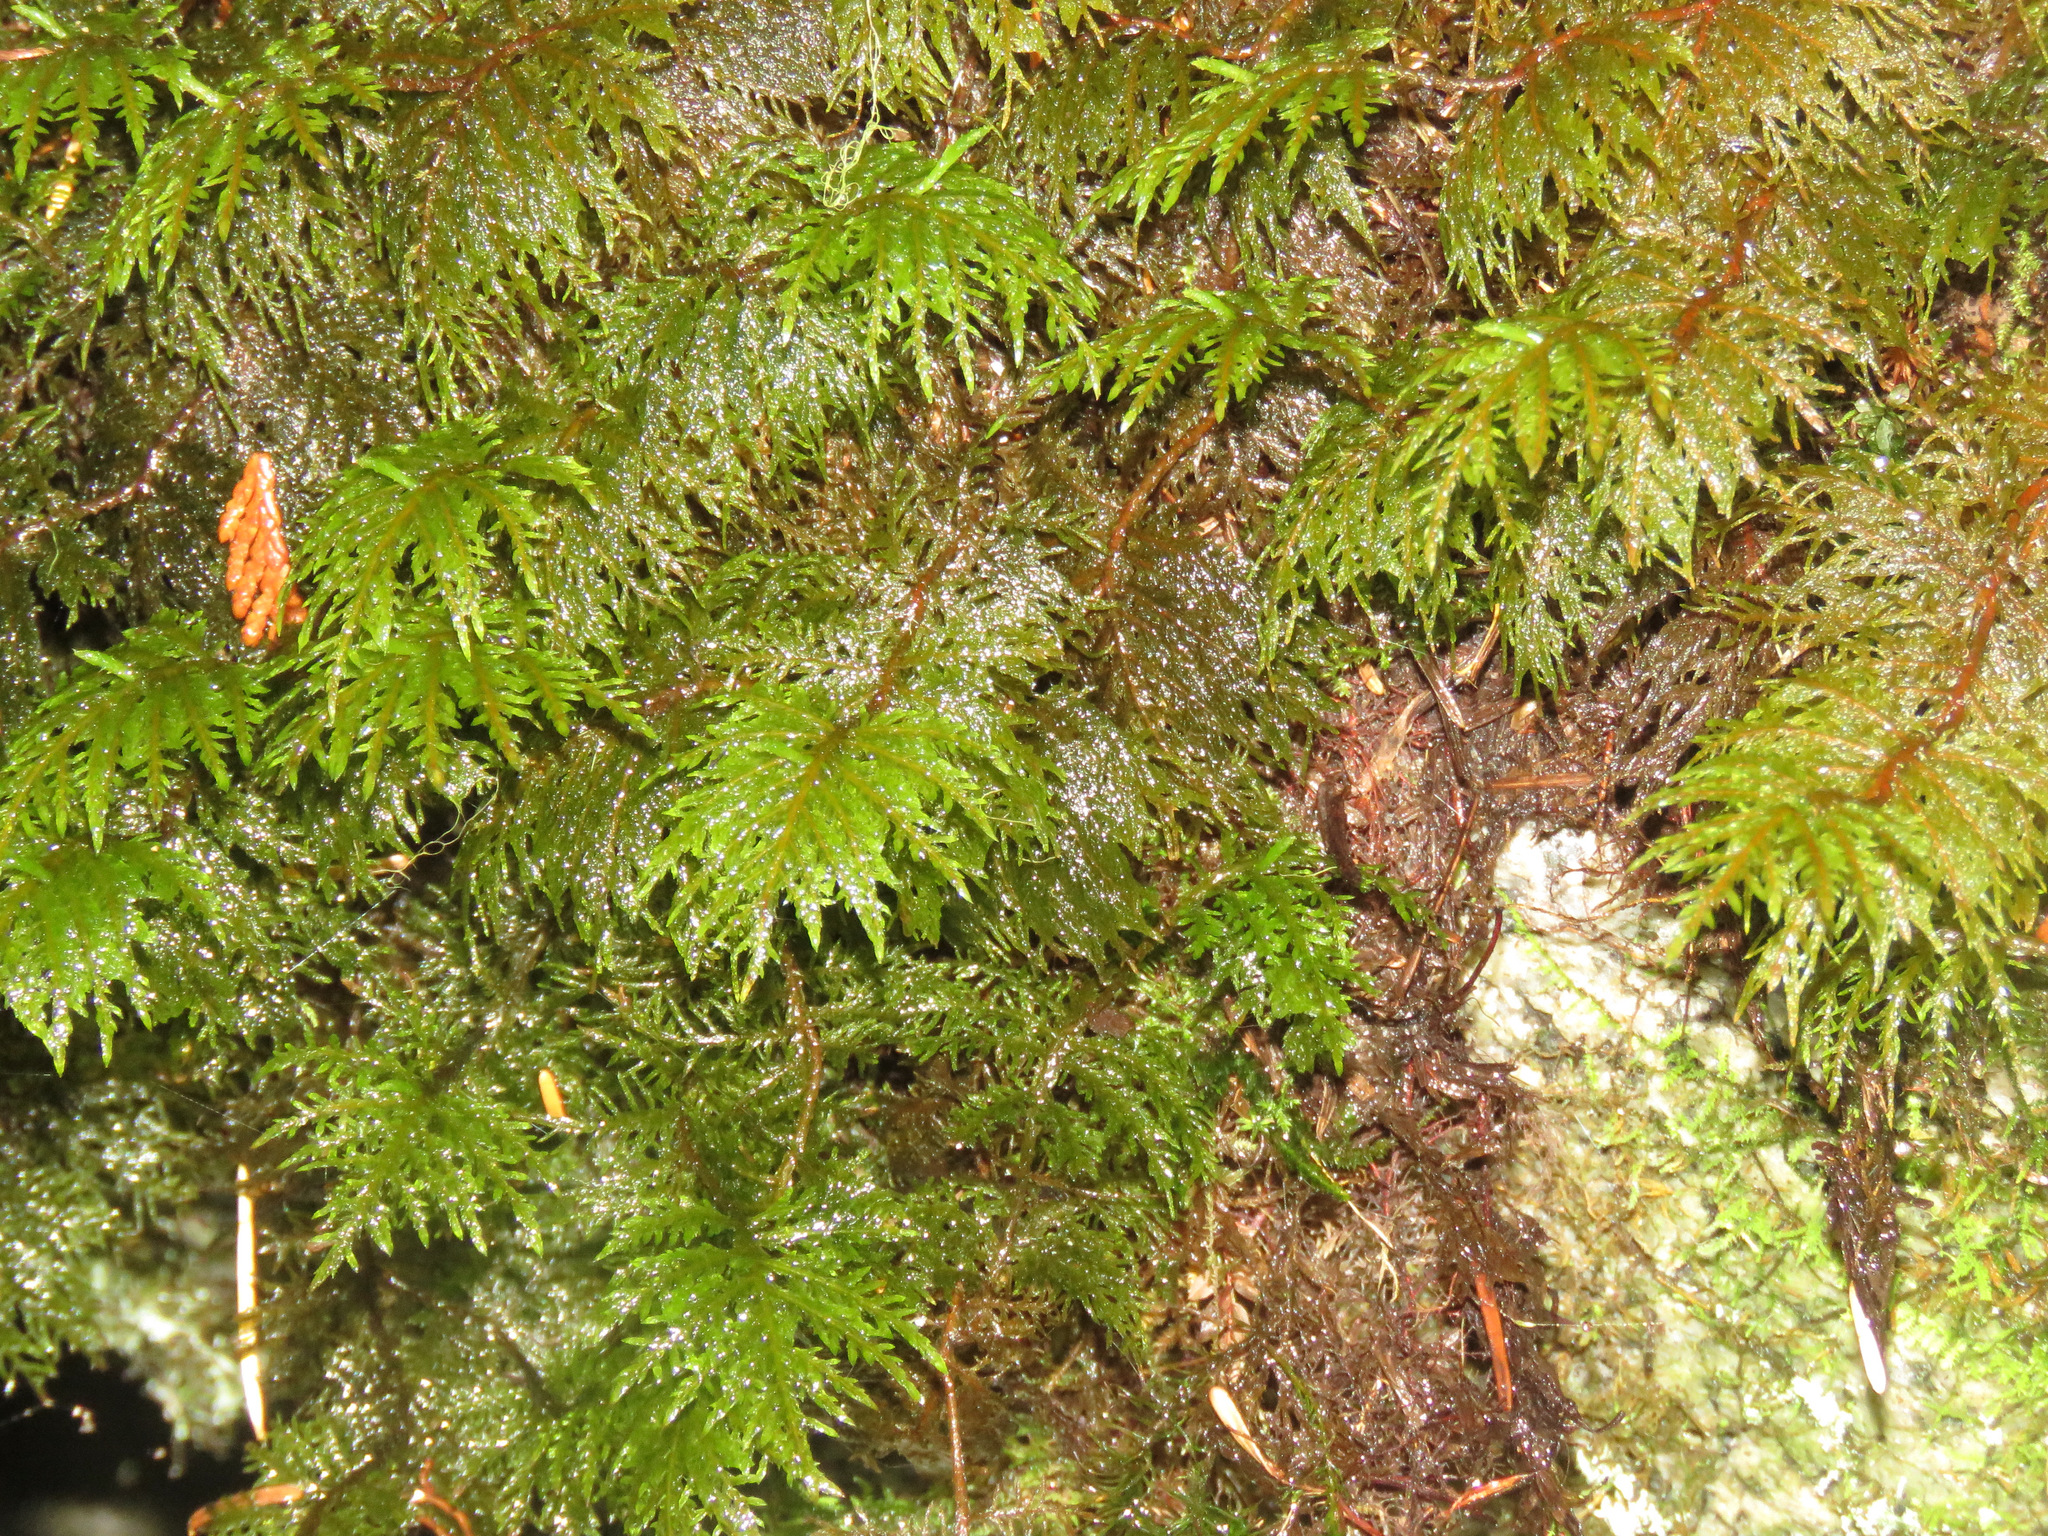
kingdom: Plantae
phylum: Bryophyta
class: Bryopsida
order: Hypnales
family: Hylocomiaceae
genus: Hylocomium
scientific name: Hylocomium splendens
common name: Stairstep moss
